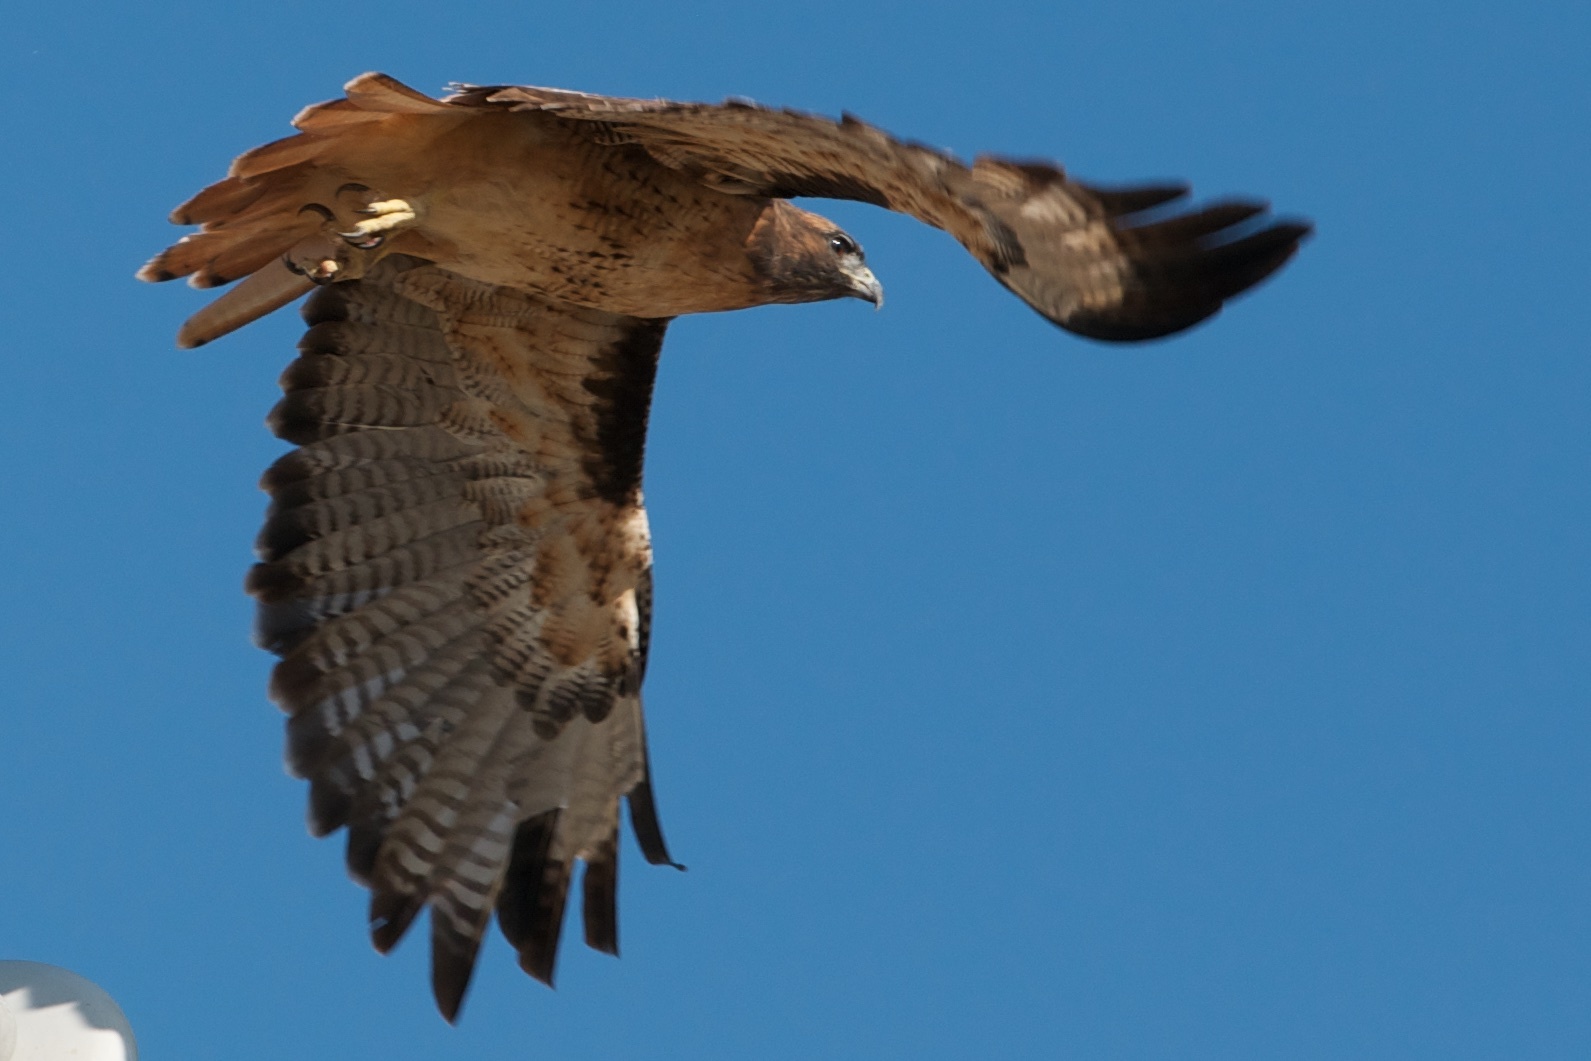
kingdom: Animalia
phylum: Chordata
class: Aves
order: Accipitriformes
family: Accipitridae
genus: Buteo
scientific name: Buteo jamaicensis
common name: Red-tailed hawk
